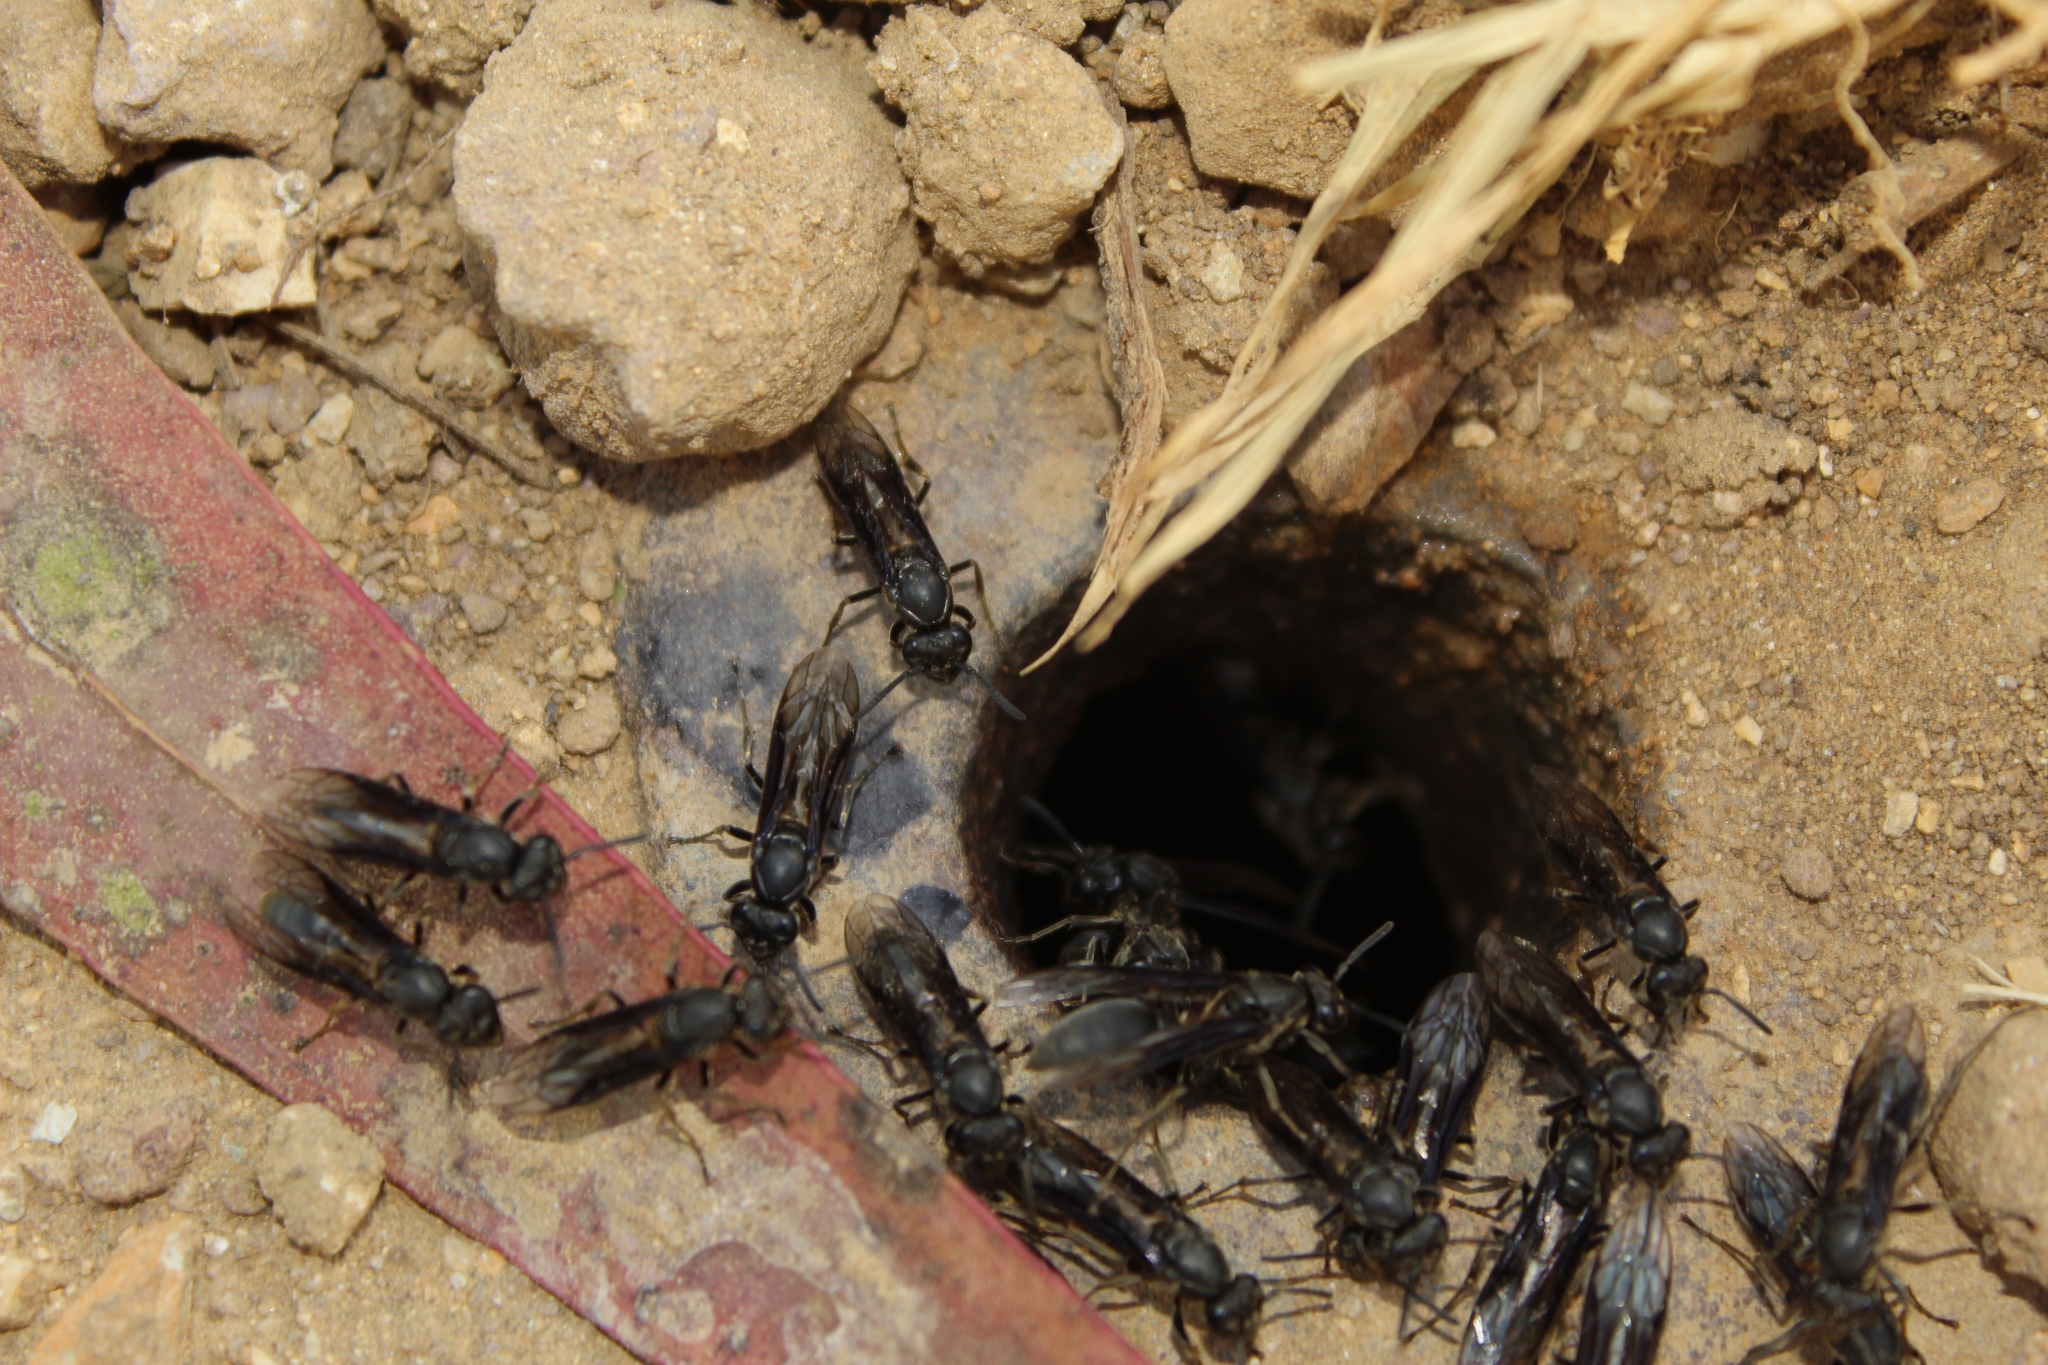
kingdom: Animalia
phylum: Arthropoda
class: Insecta
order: Hymenoptera
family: Eumenidae
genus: Polybia
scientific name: Polybia ignobilis
